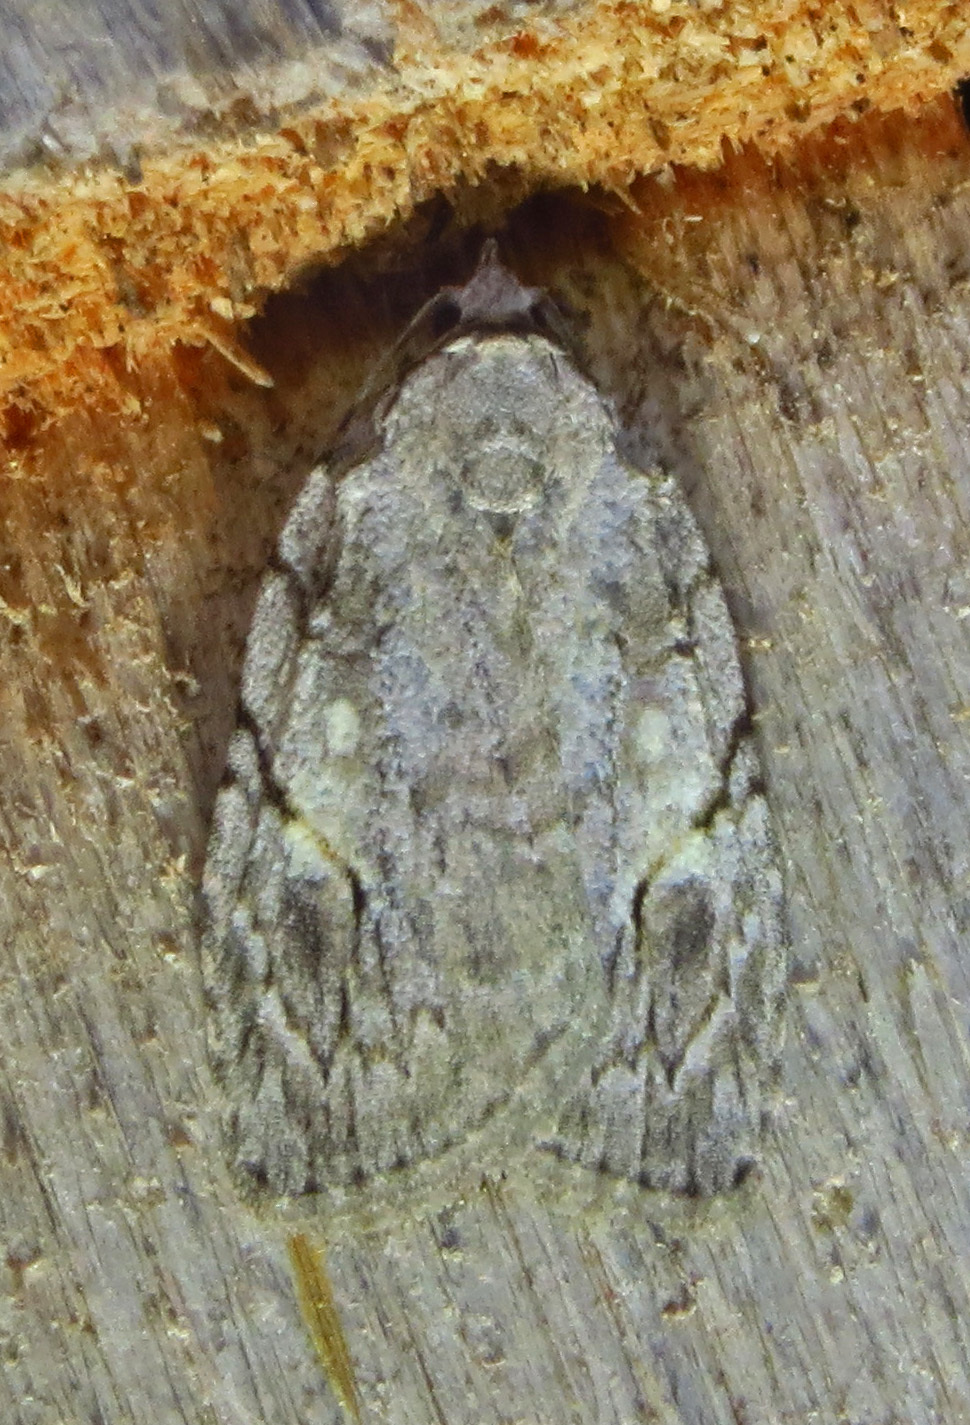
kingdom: Animalia
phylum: Arthropoda
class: Insecta
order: Lepidoptera
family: Noctuidae
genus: Balsa
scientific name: Balsa labecula
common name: White-blotched balsa moth
